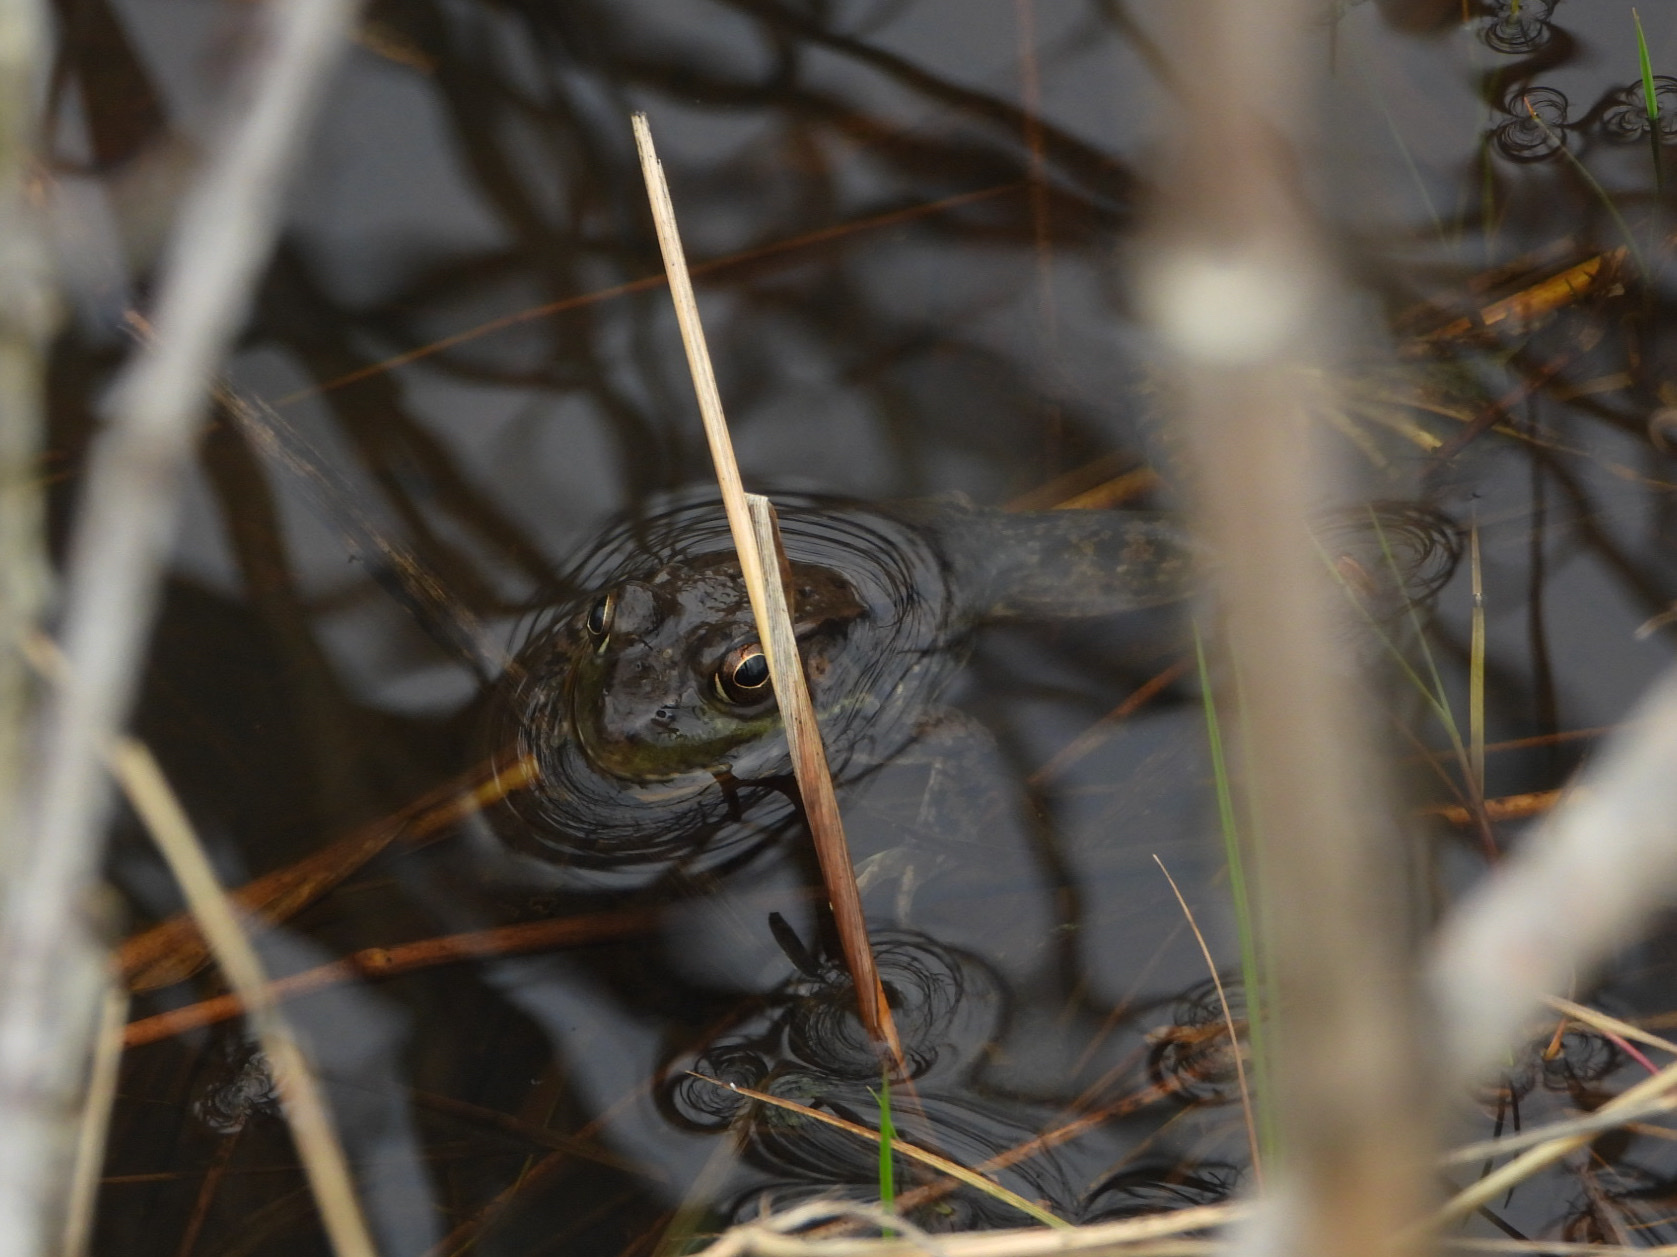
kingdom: Animalia
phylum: Chordata
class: Amphibia
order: Anura
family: Ranidae
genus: Lithobates
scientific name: Lithobates clamitans
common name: Green frog
